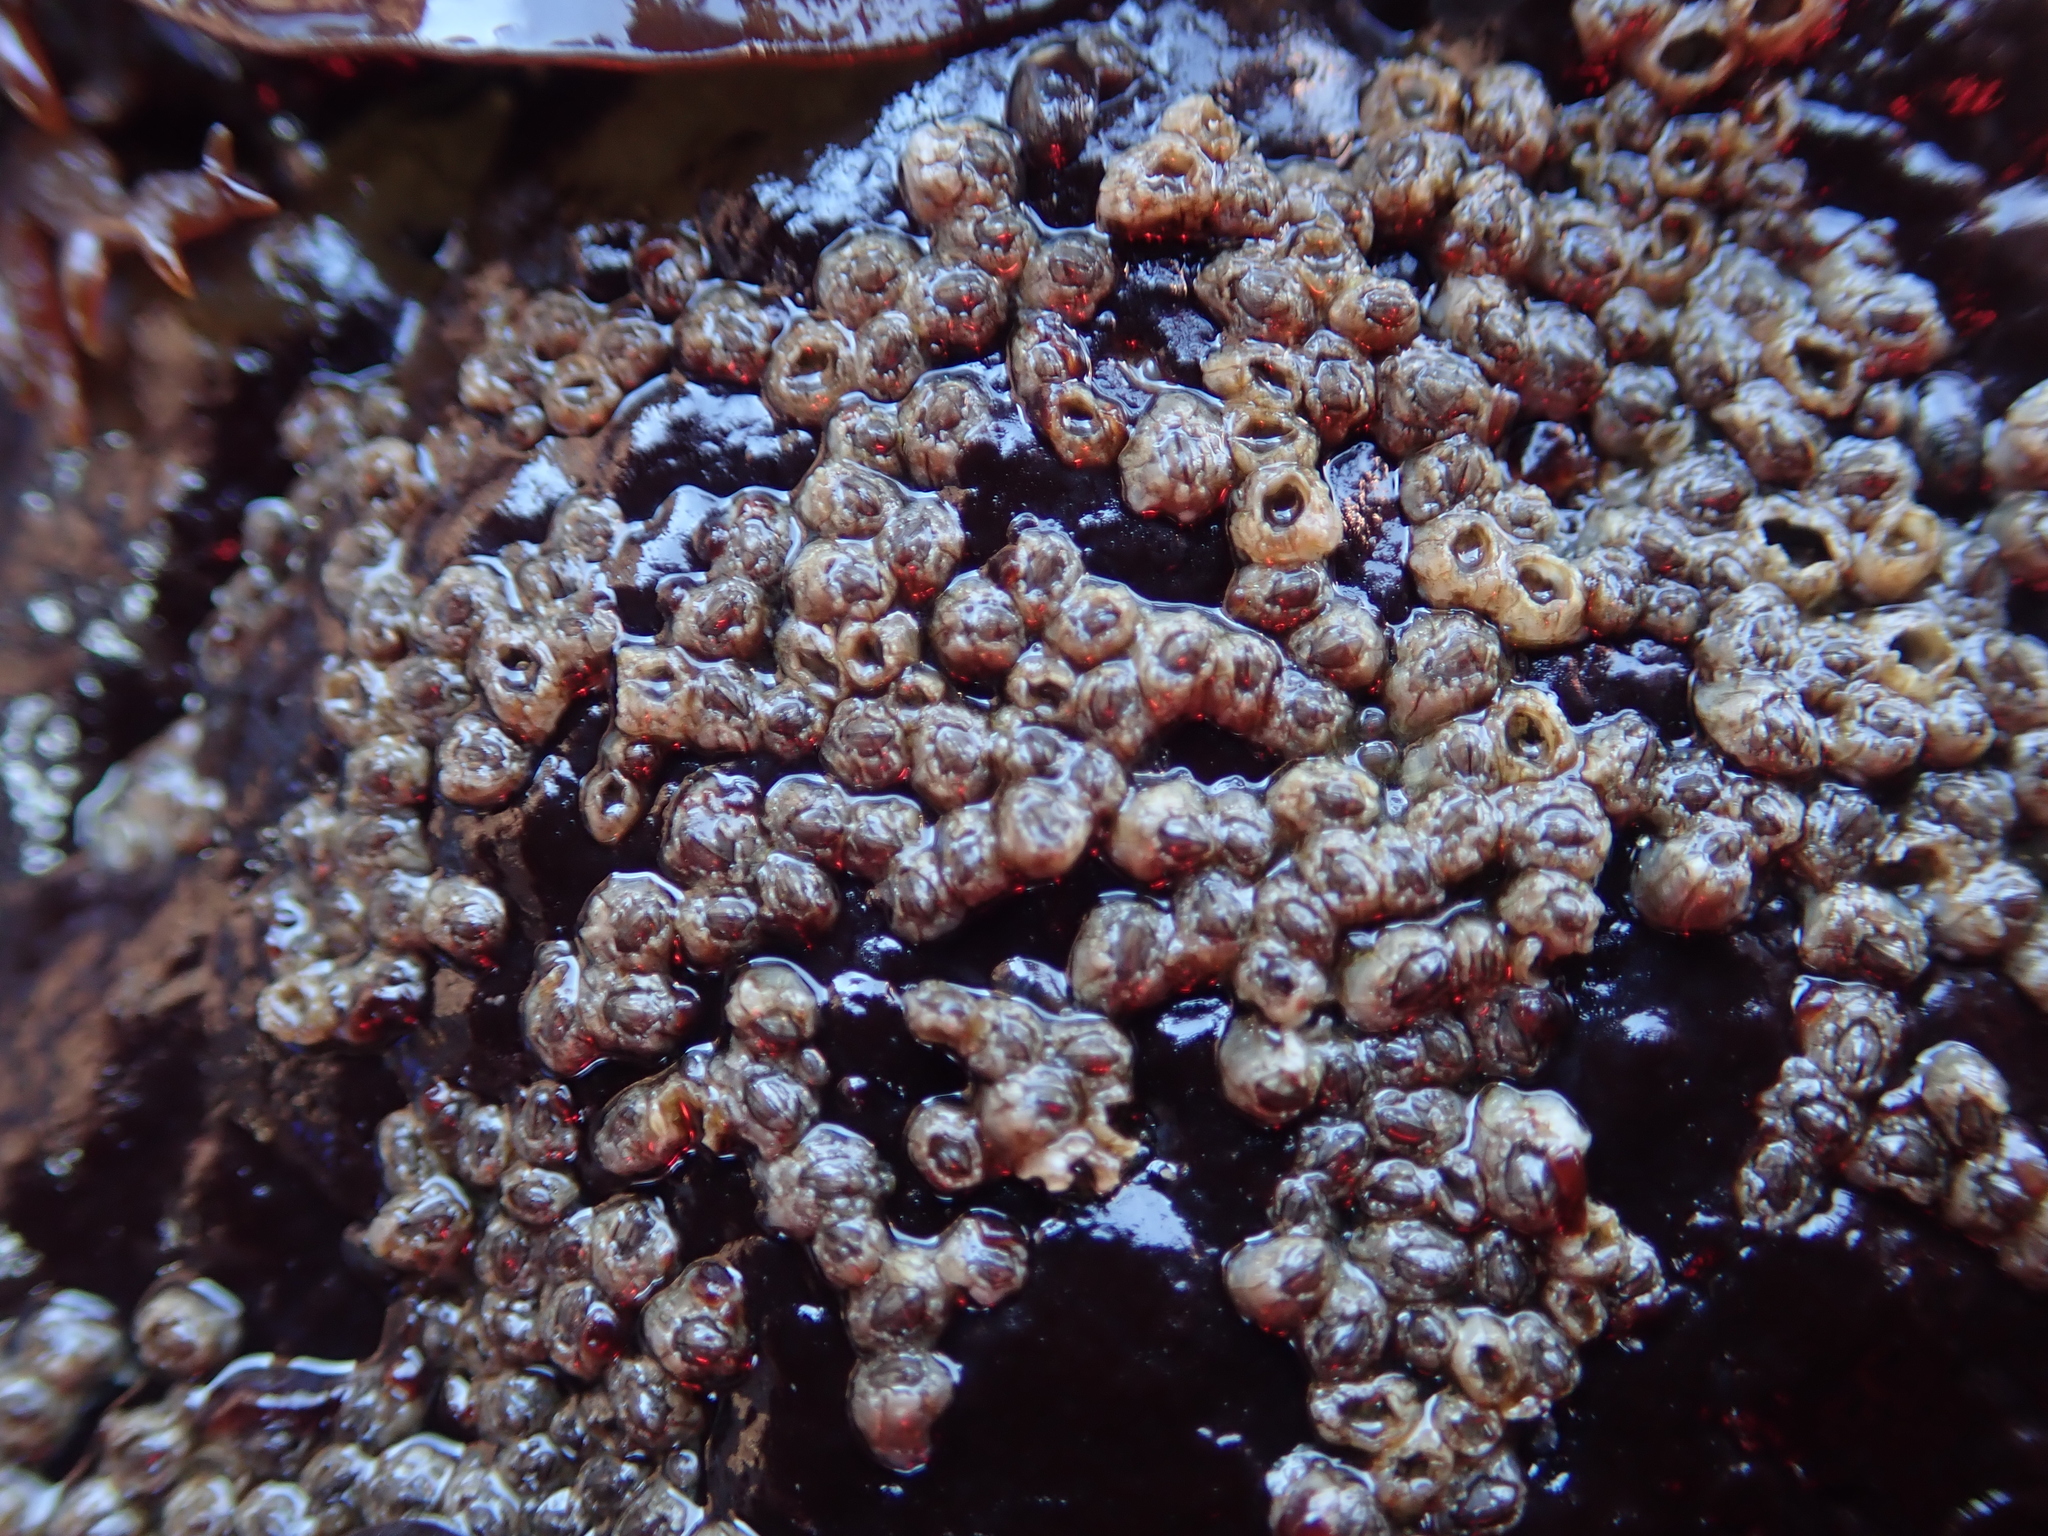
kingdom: Animalia
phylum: Arthropoda
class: Maxillopoda
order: Sessilia
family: Chthamalidae
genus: Chthamalus
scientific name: Chthamalus dalli
